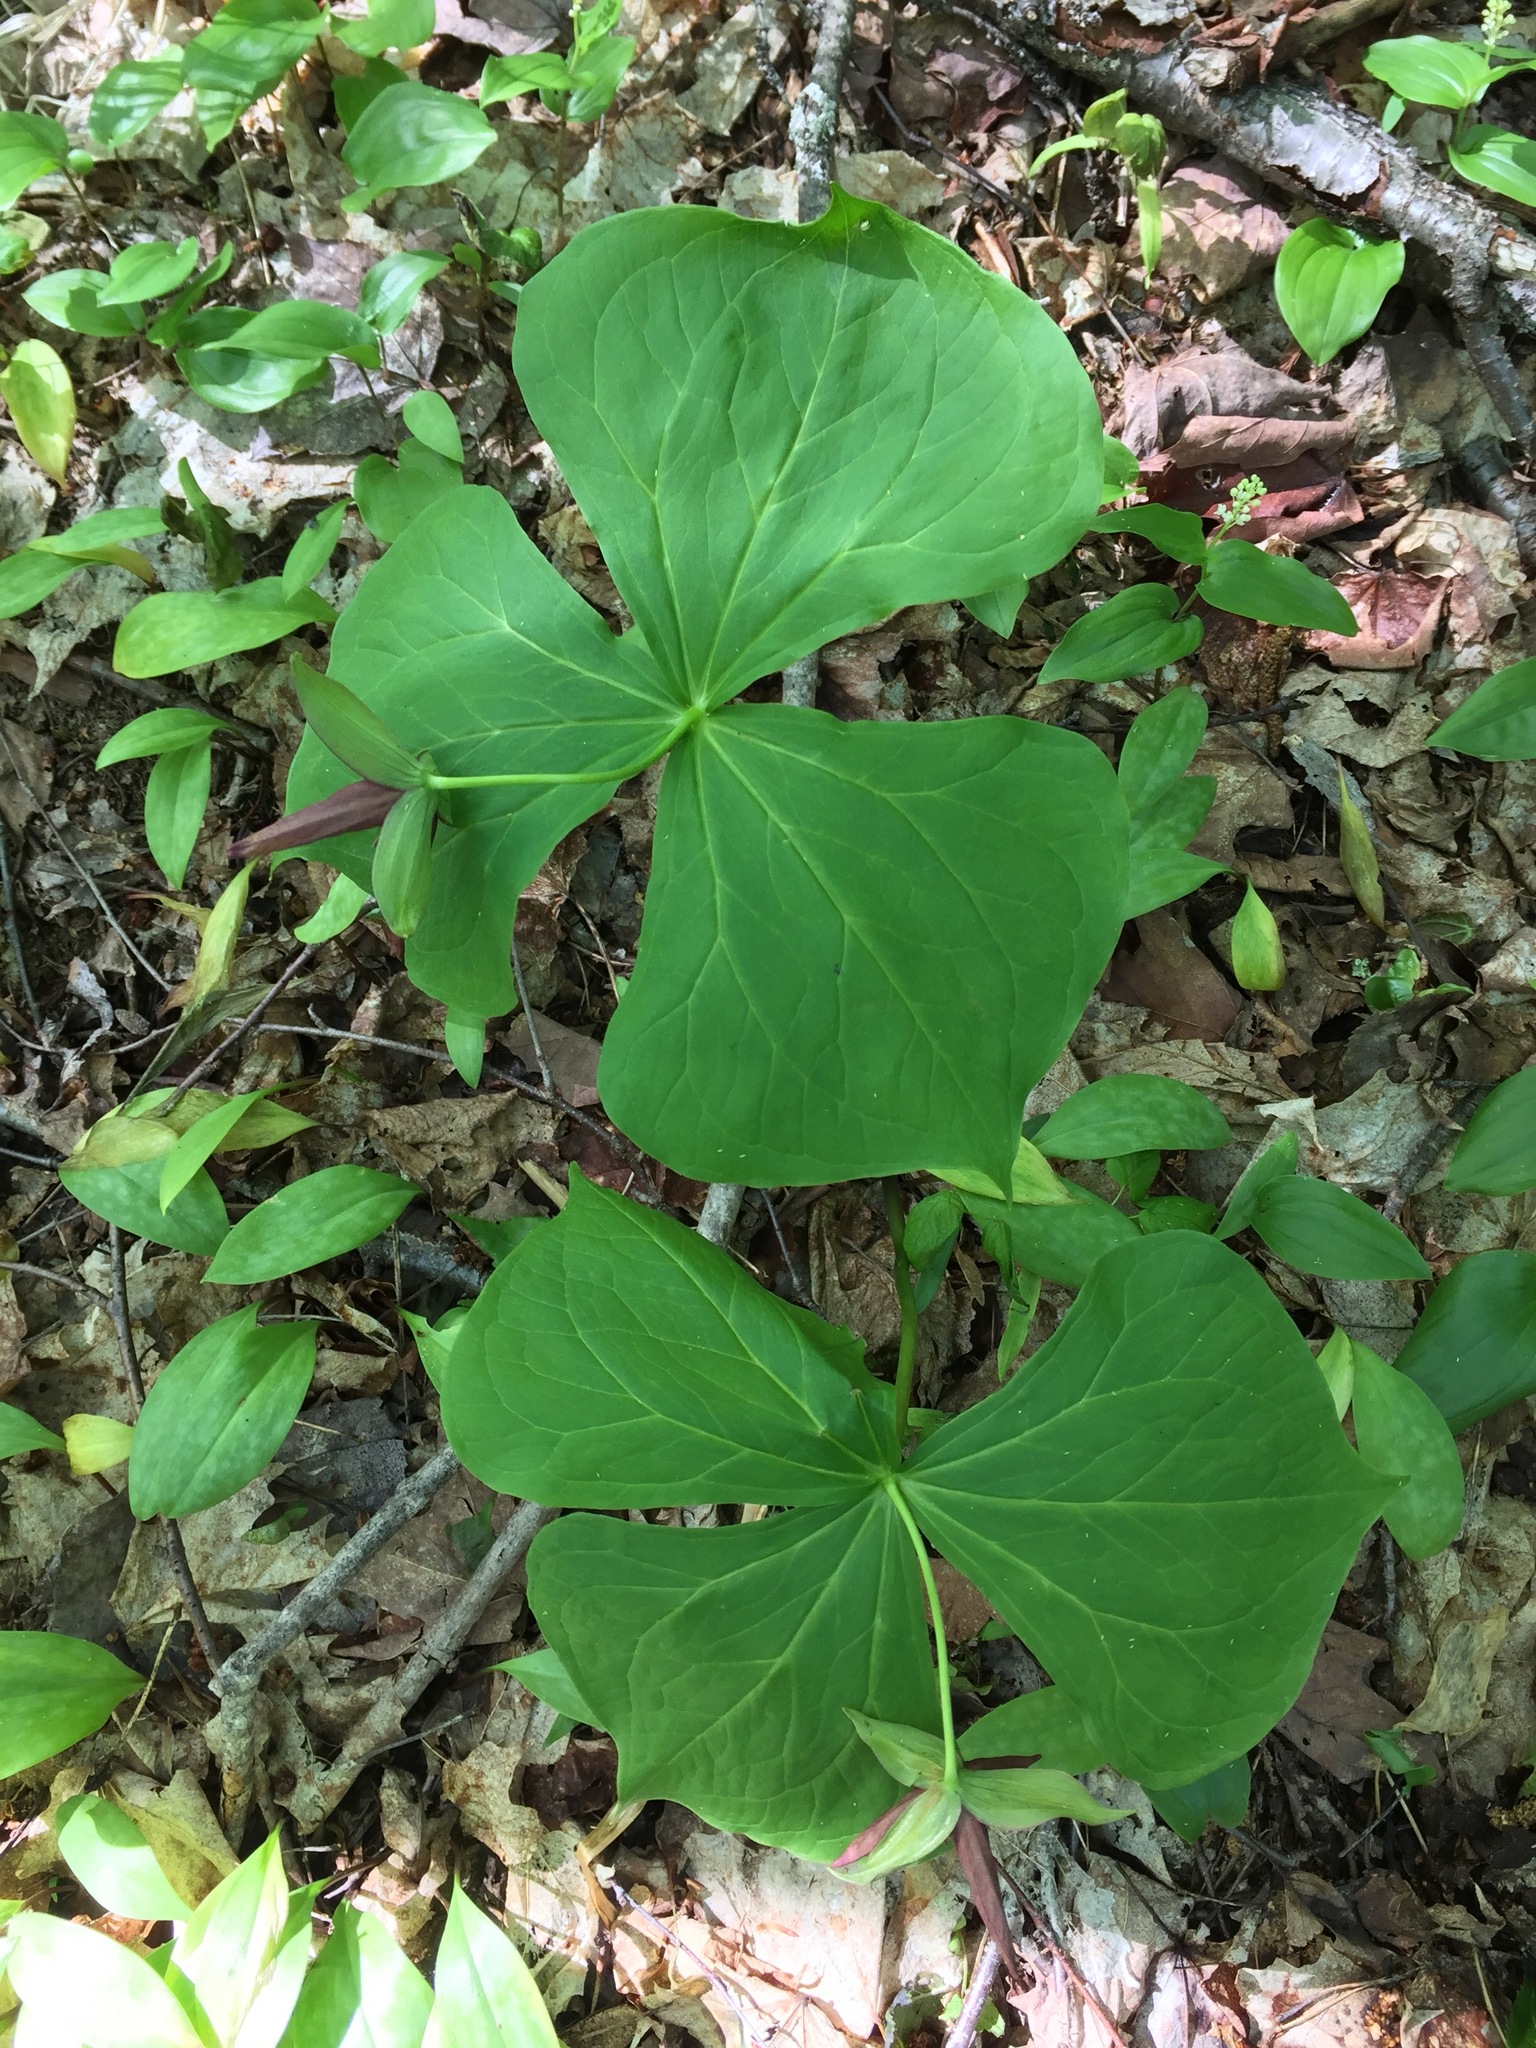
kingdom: Plantae
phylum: Tracheophyta
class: Liliopsida
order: Liliales
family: Melanthiaceae
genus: Trillium
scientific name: Trillium erectum
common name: Purple trillium
